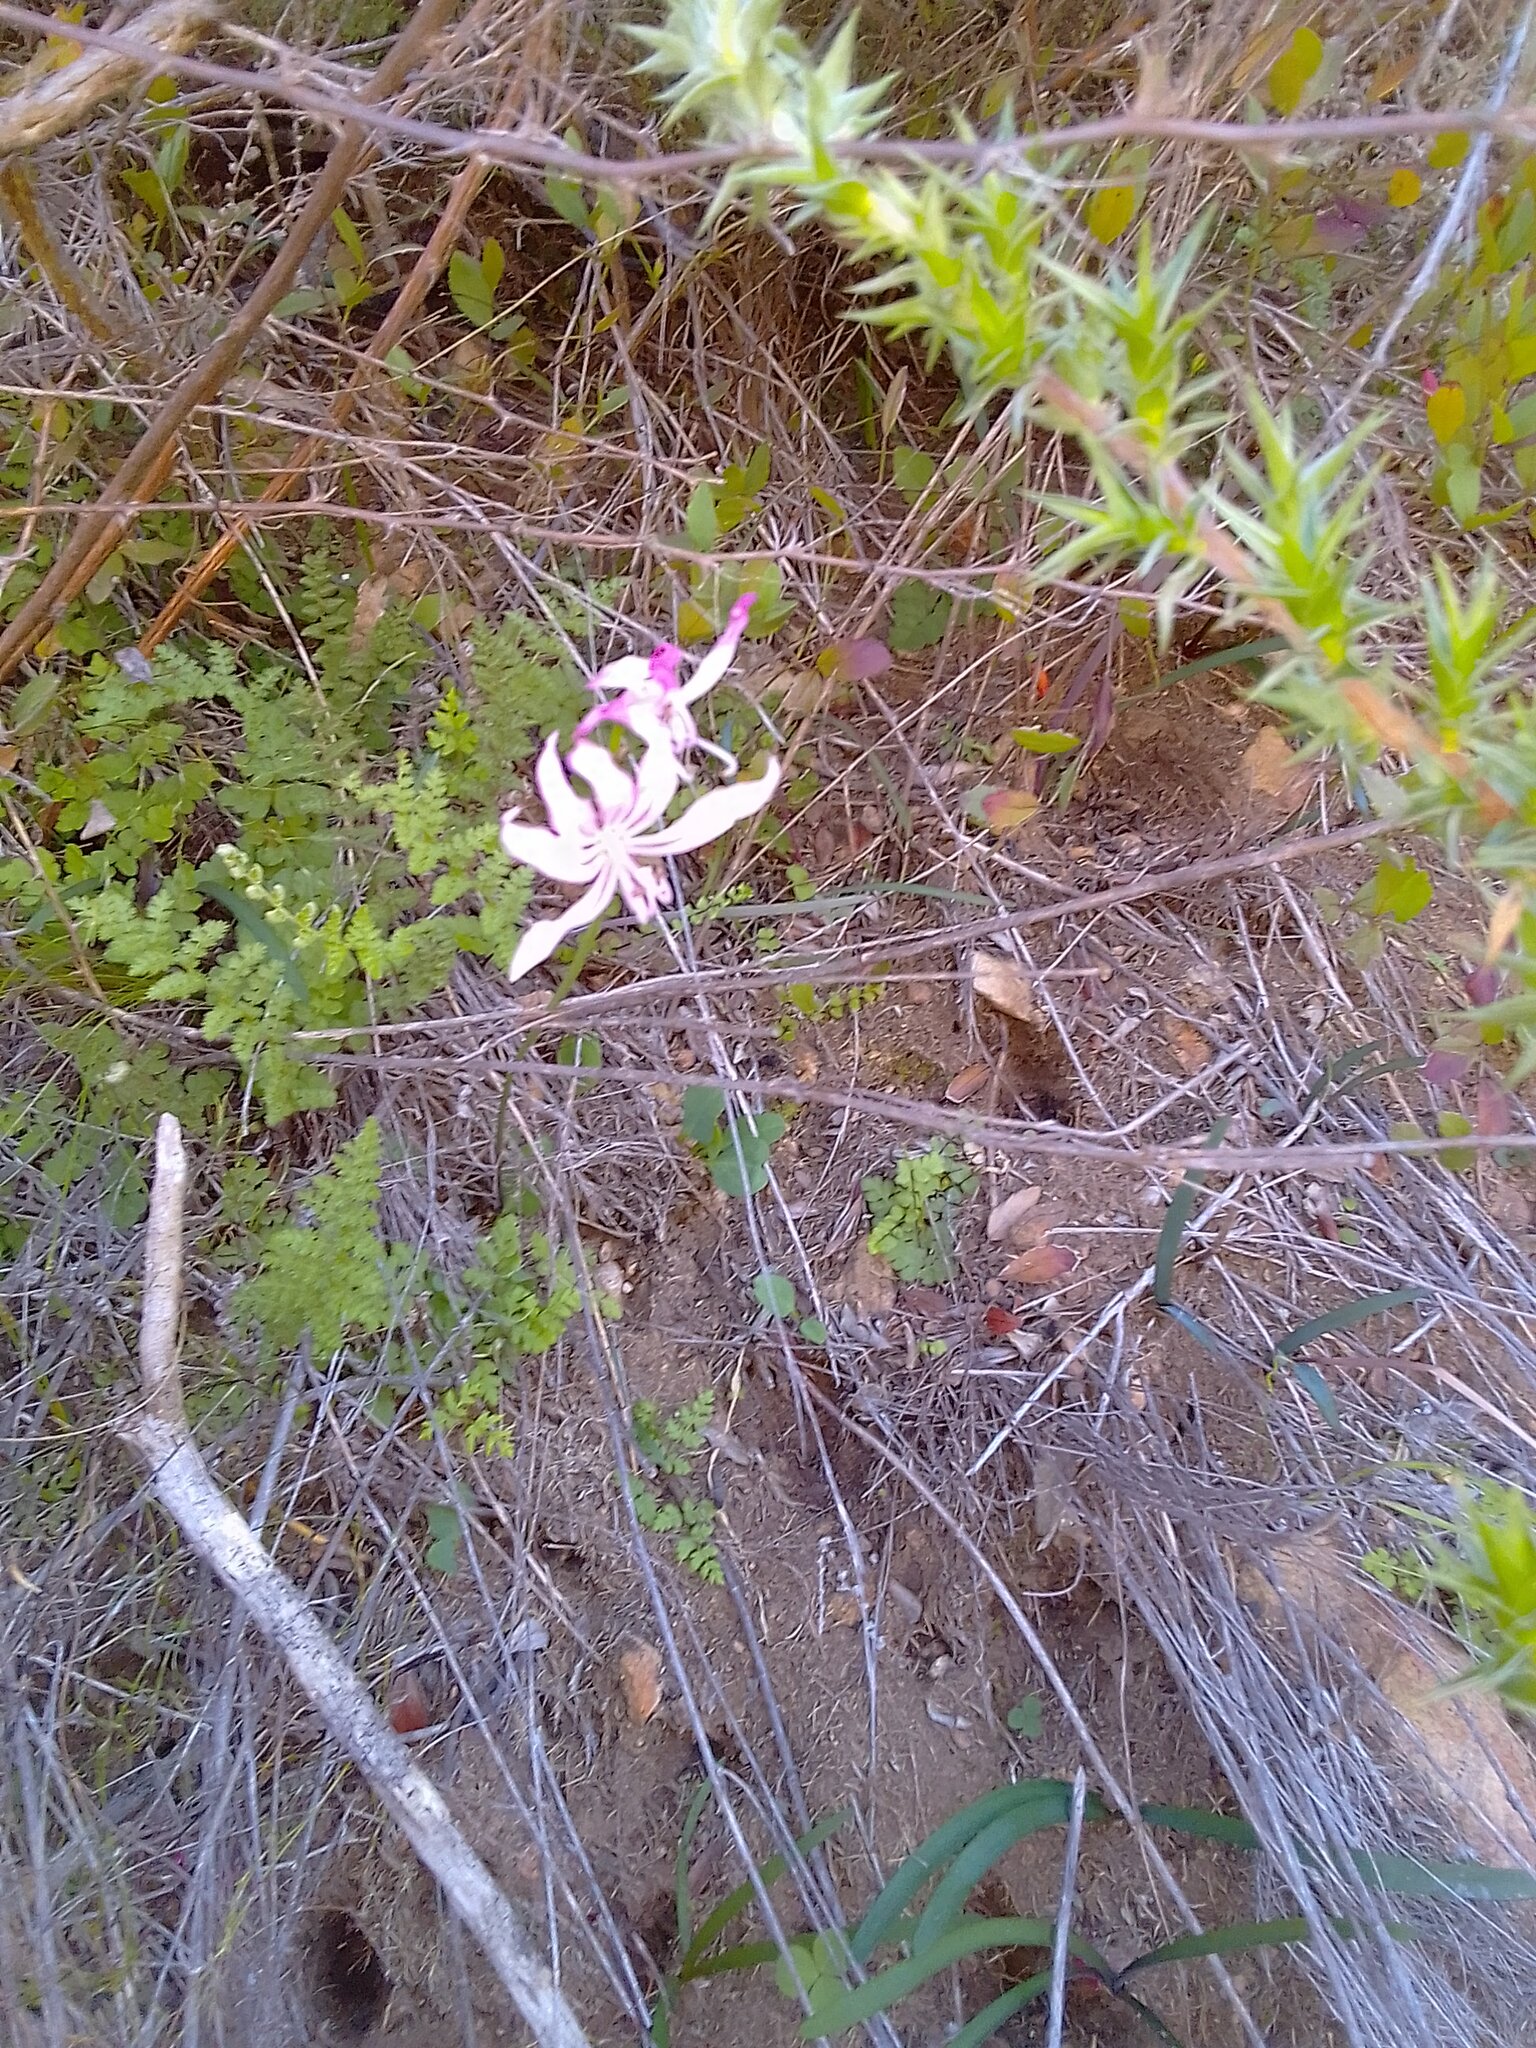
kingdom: Plantae
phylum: Tracheophyta
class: Liliopsida
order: Asparagales
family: Amaryllidaceae
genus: Nerine
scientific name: Nerine humilis
